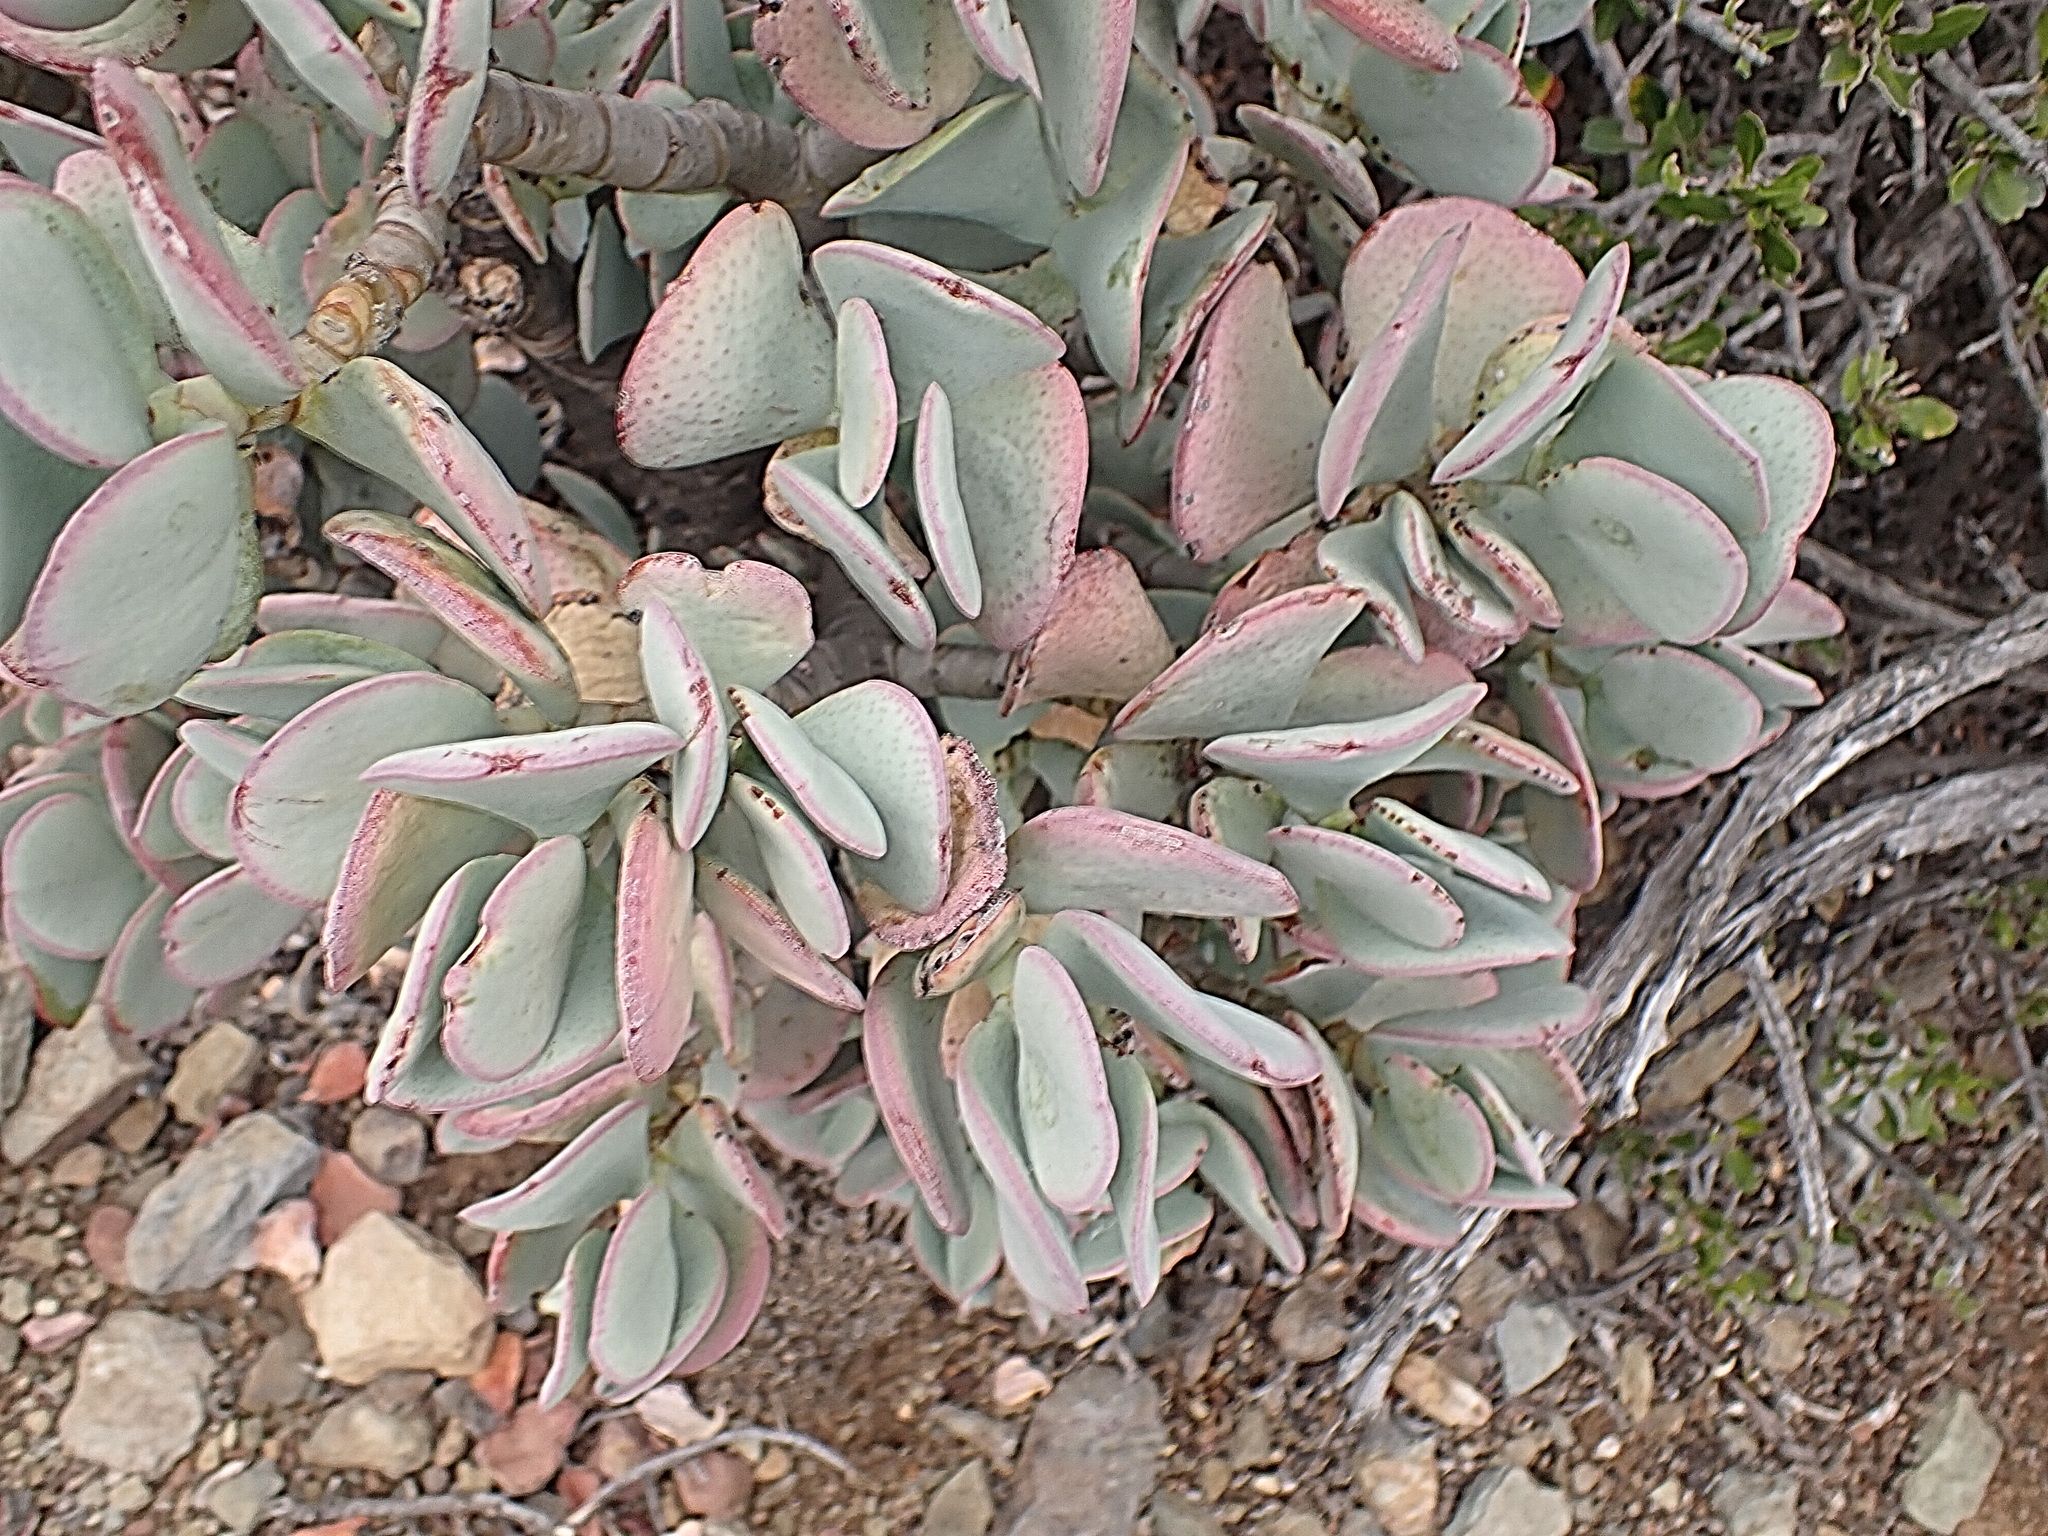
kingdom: Plantae
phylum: Tracheophyta
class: Magnoliopsida
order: Saxifragales
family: Crassulaceae
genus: Crassula
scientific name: Crassula arborescens
